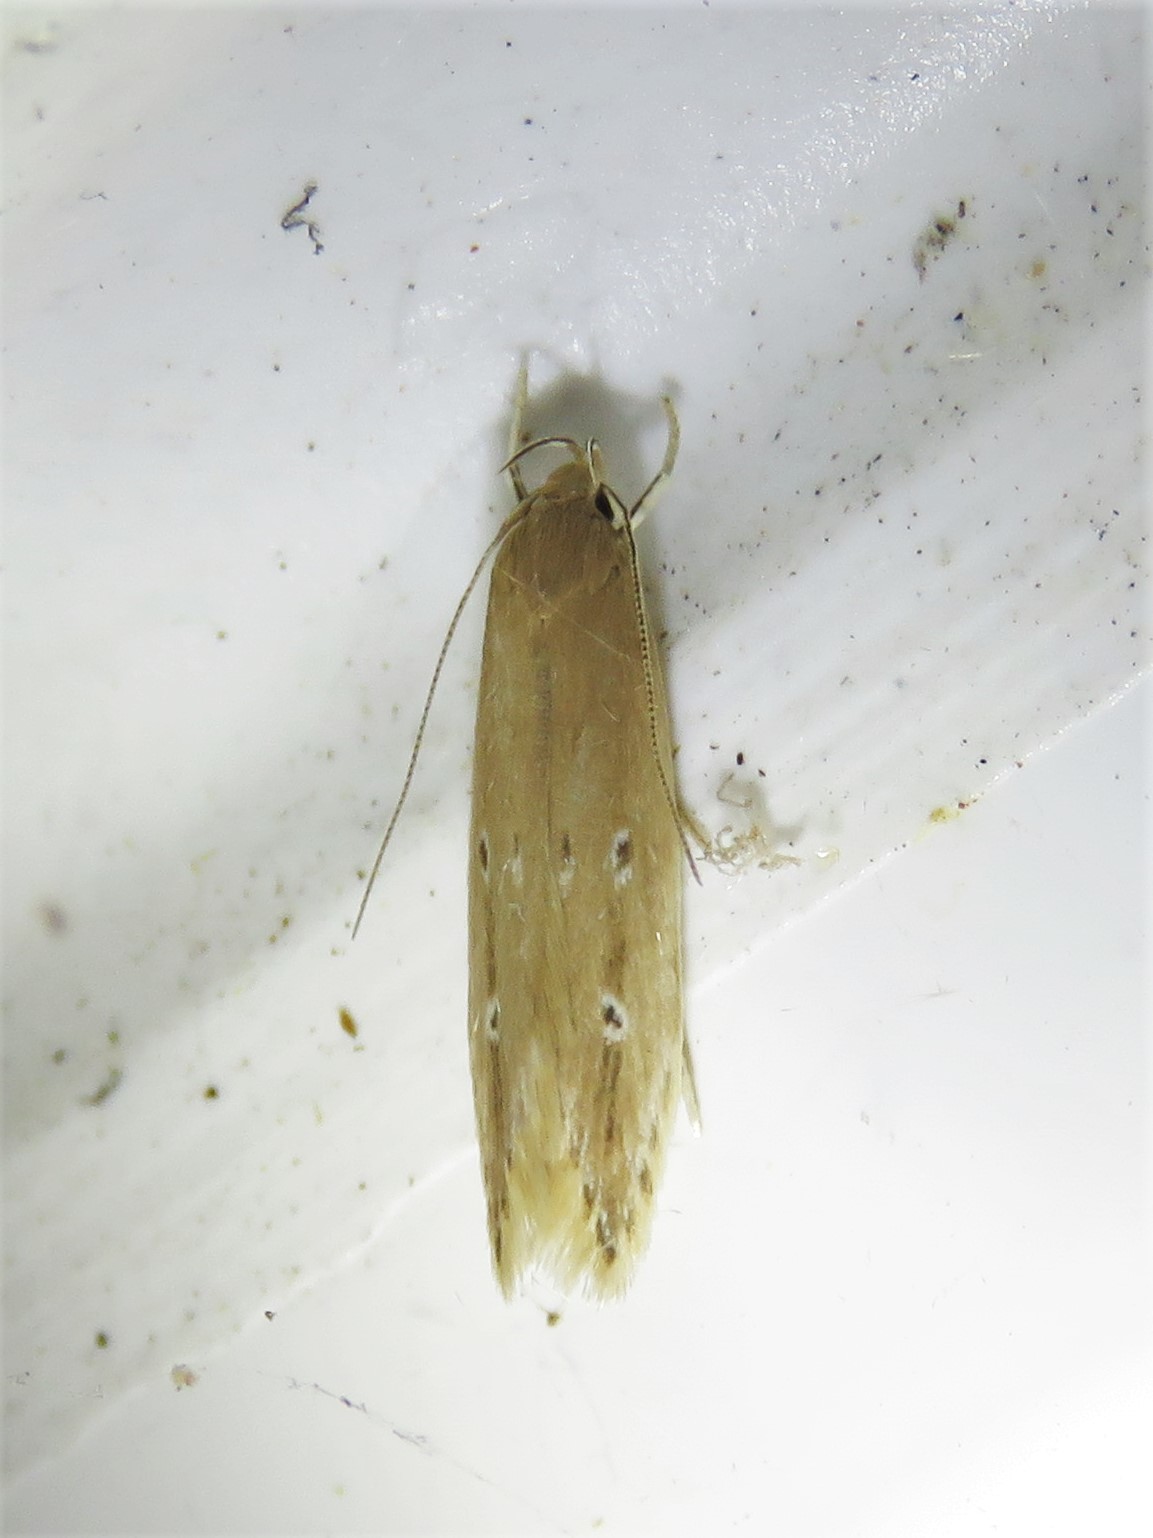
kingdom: Animalia
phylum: Arthropoda
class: Insecta
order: Lepidoptera
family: Cosmopterigidae
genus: Limnaecia
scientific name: Limnaecia phragmitella
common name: Bulrush cosmet
